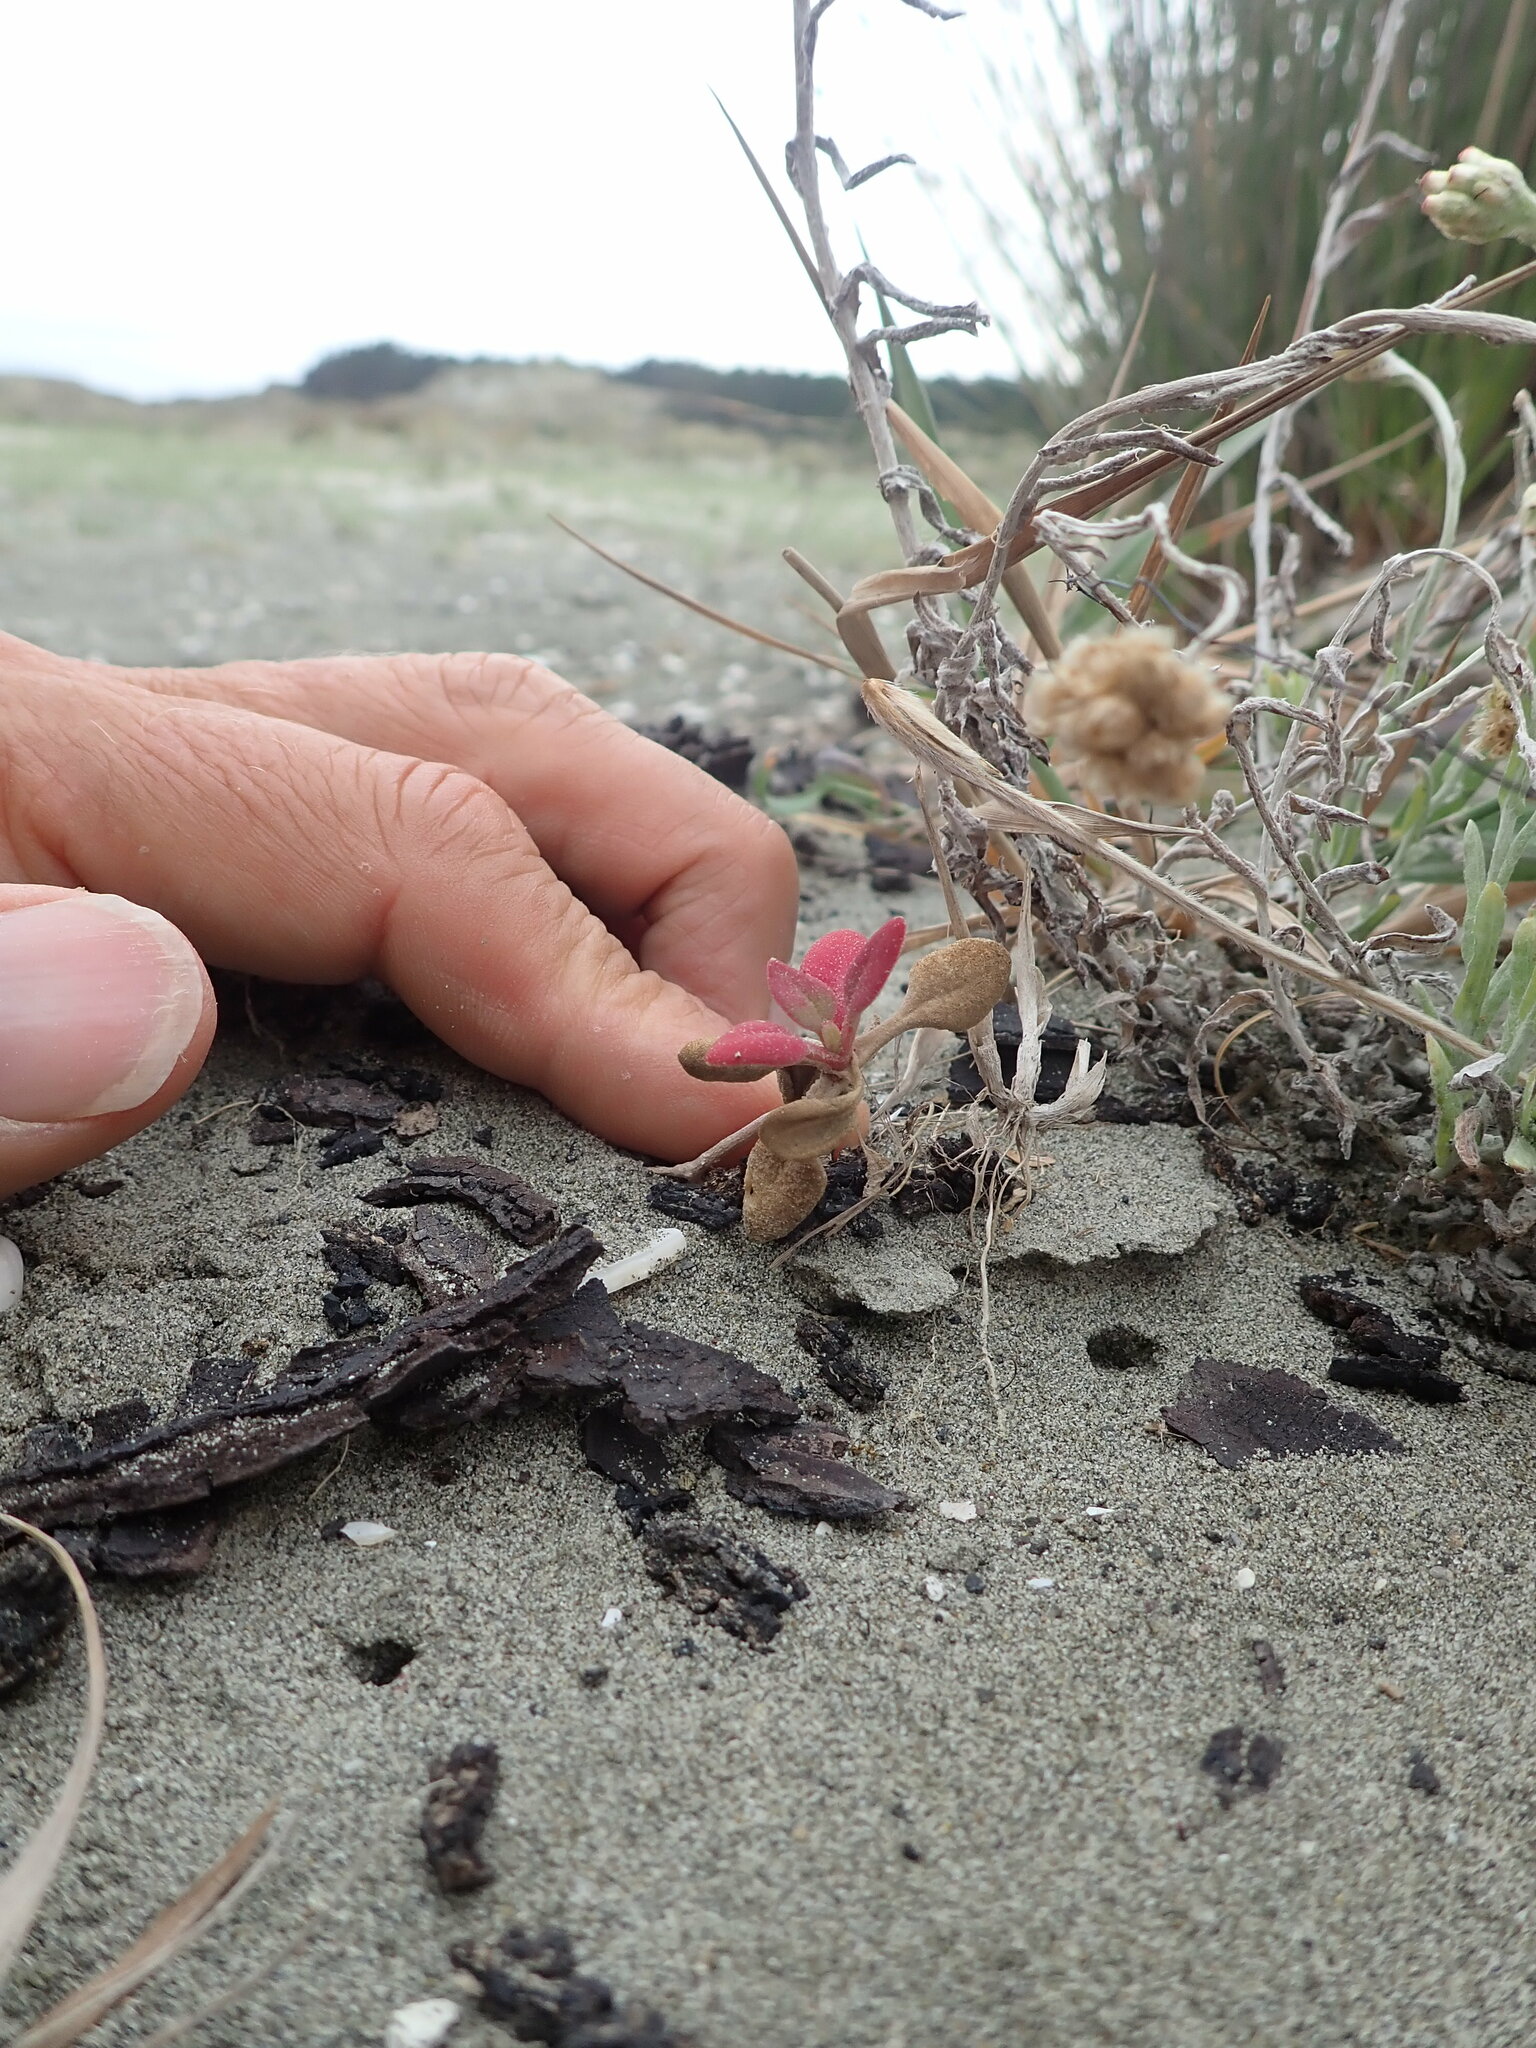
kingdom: Plantae
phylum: Tracheophyta
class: Magnoliopsida
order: Caryophyllales
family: Aizoaceae
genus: Tetragonia
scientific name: Tetragonia implexicoma
